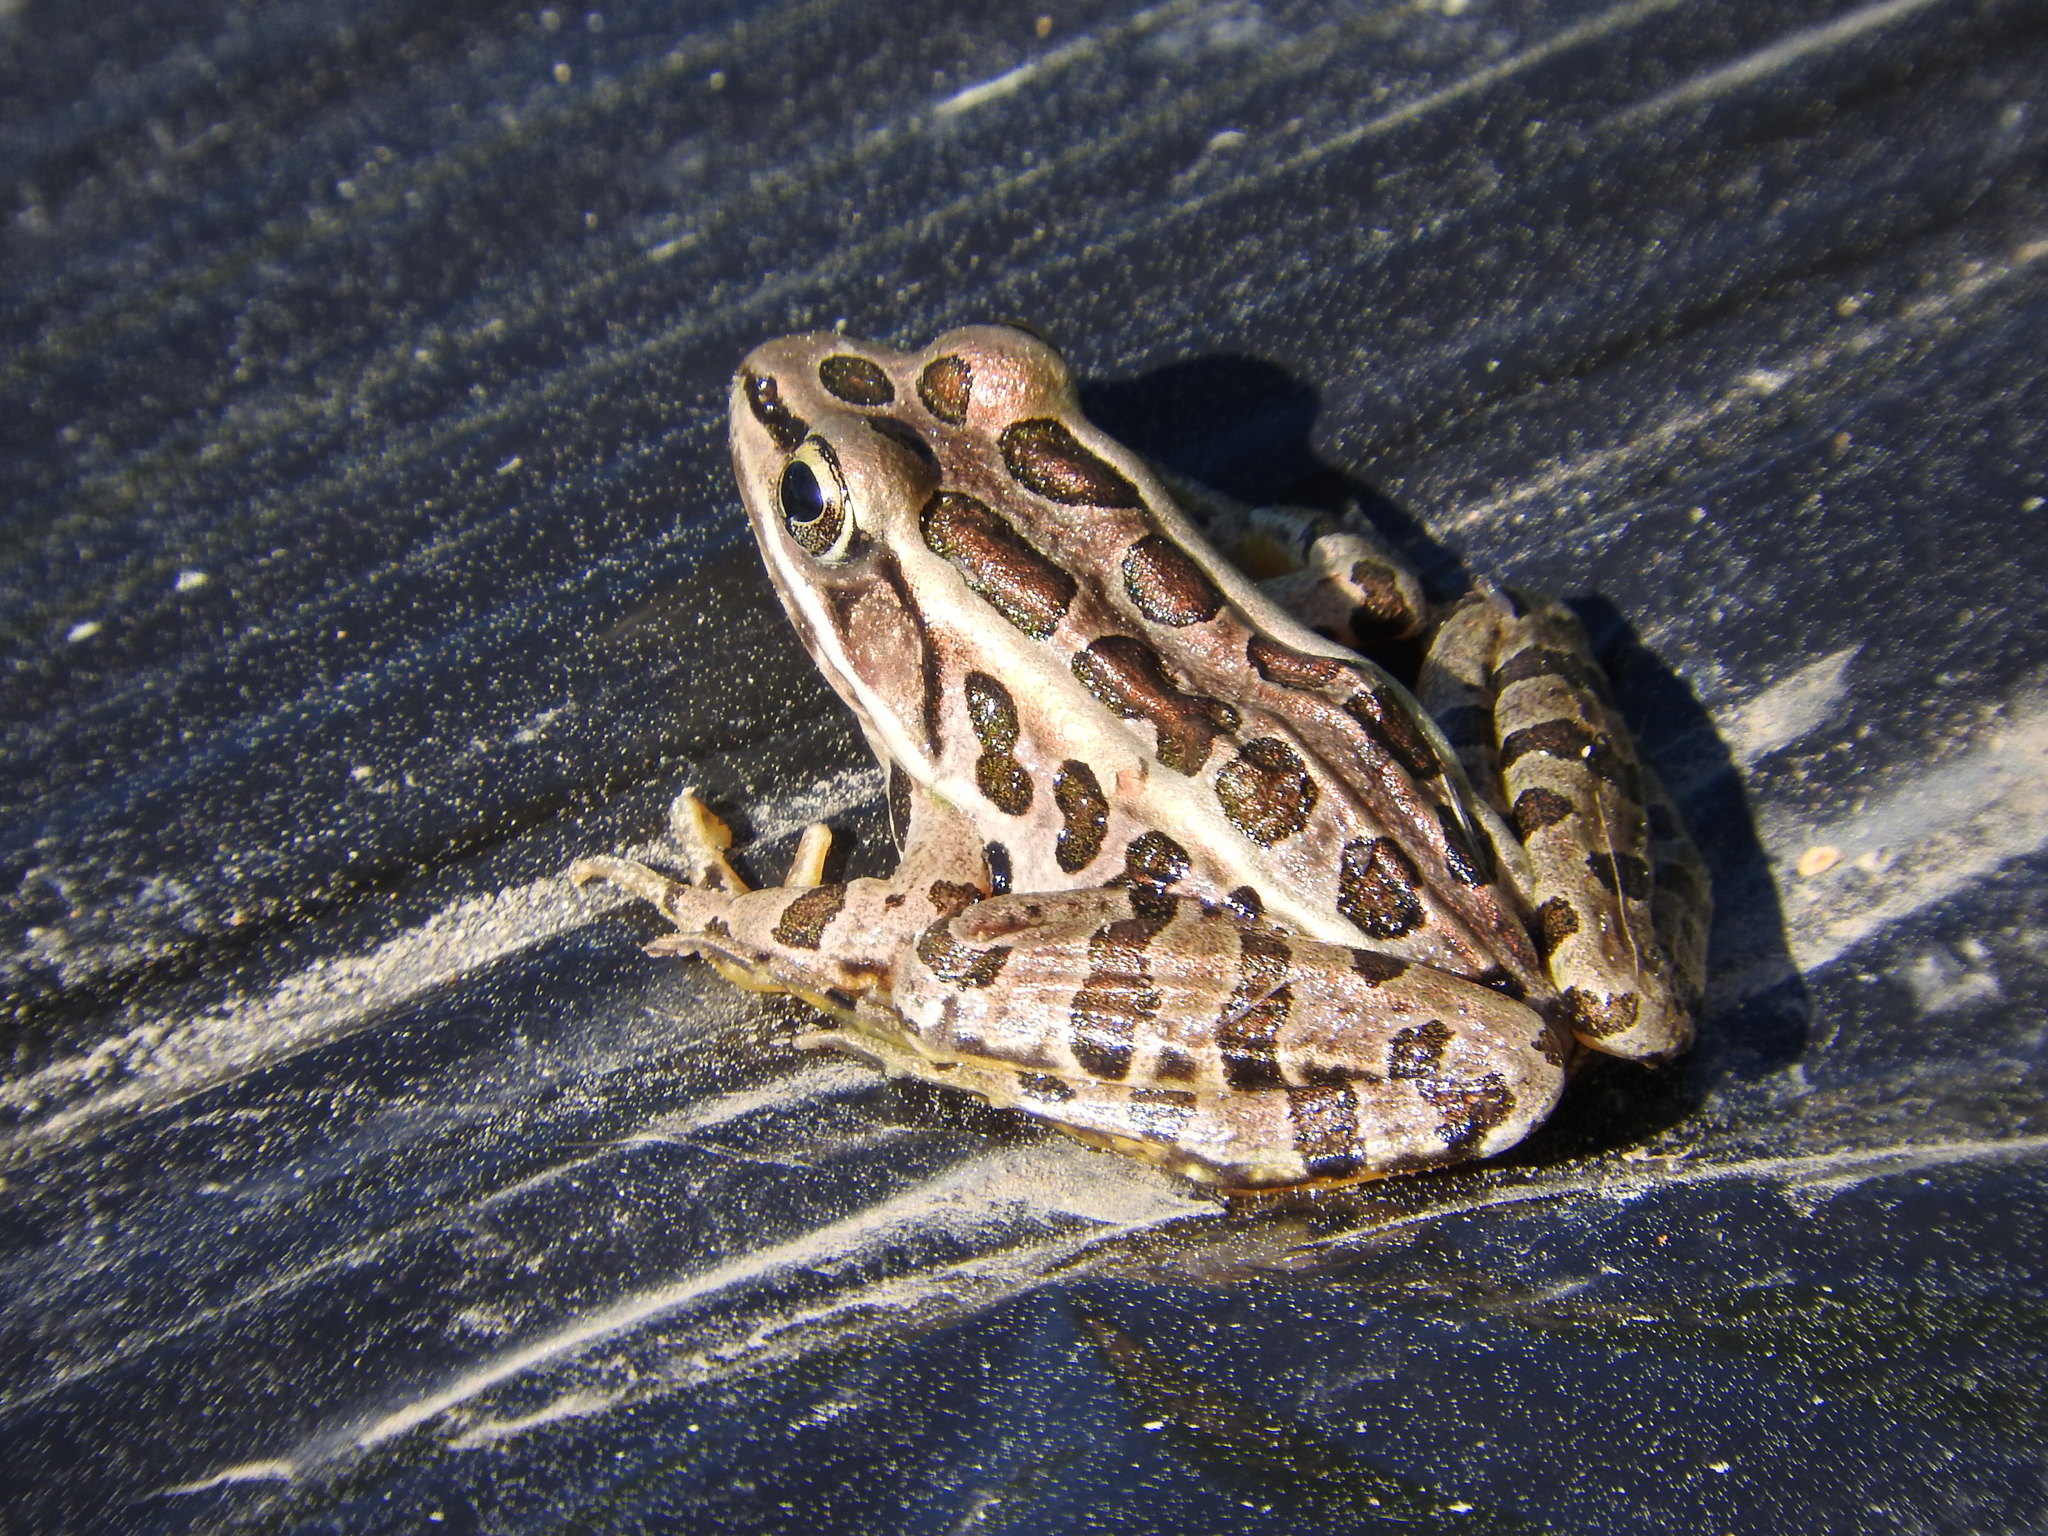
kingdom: Animalia
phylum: Chordata
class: Amphibia
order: Anura
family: Ranidae
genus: Lithobates
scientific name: Lithobates palustris
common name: Pickerel frog
